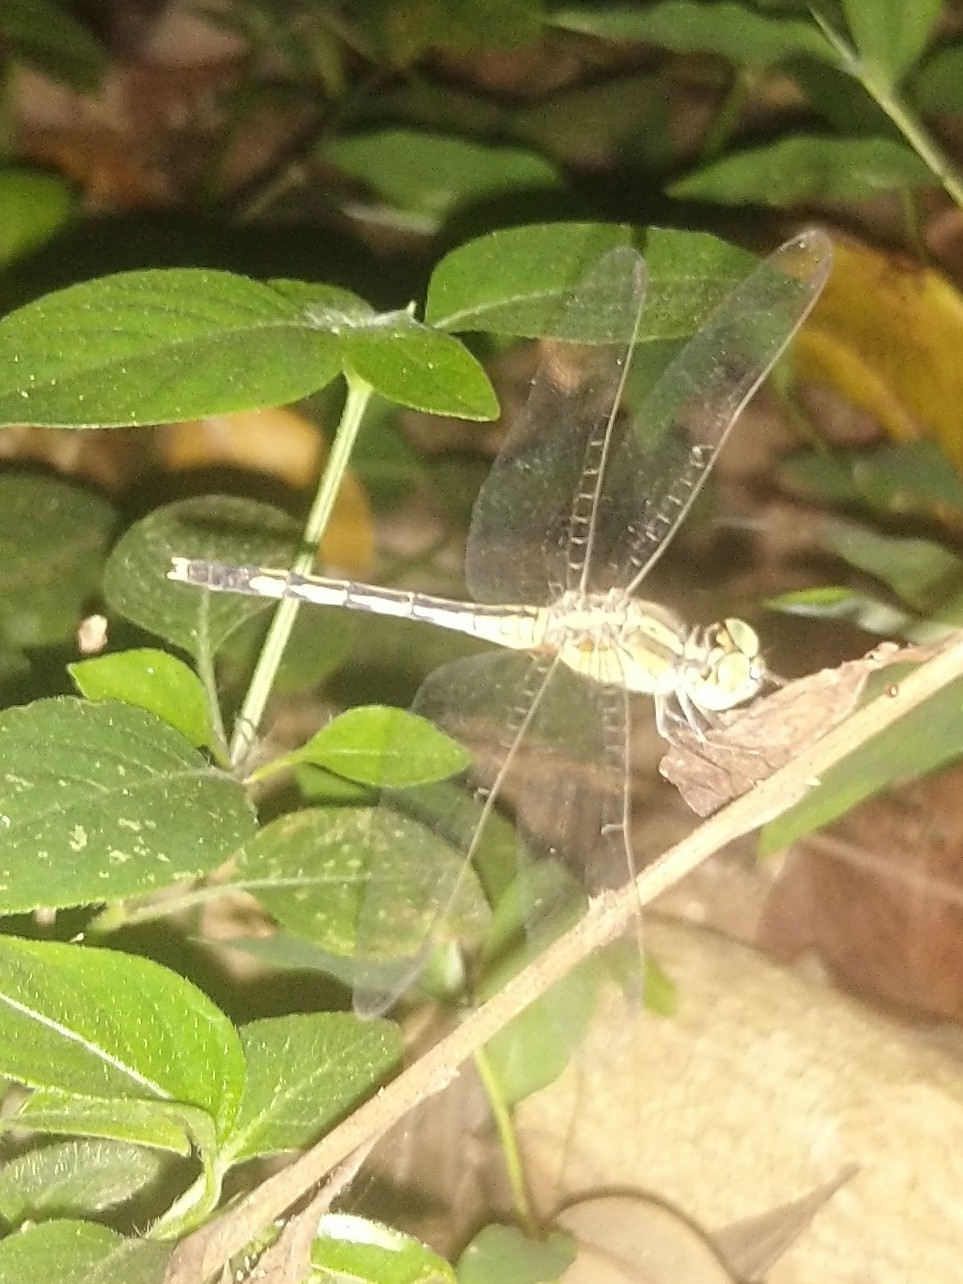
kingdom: Animalia
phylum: Arthropoda
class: Insecta
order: Odonata
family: Libellulidae
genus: Diplacodes
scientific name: Diplacodes trivialis
